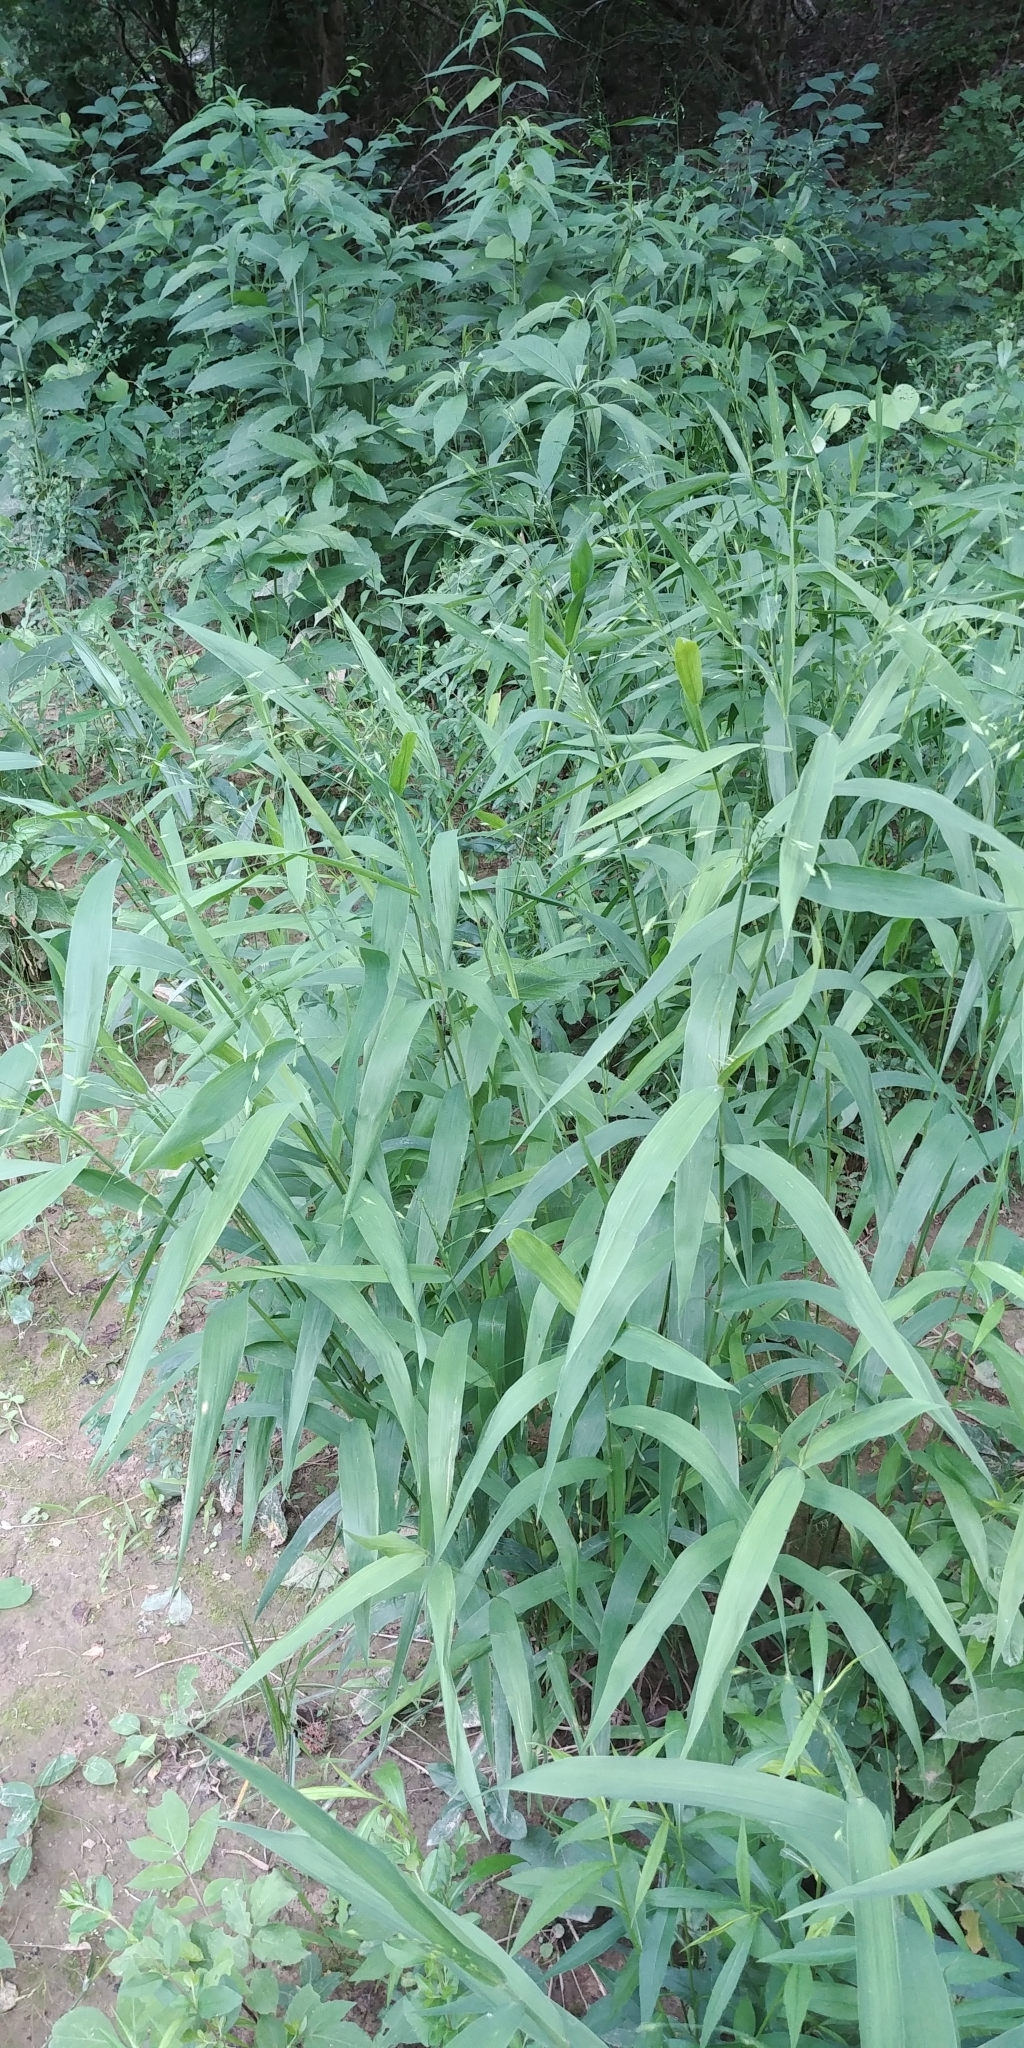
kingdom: Plantae
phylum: Tracheophyta
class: Liliopsida
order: Poales
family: Poaceae
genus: Chasmanthium
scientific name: Chasmanthium latifolium
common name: Broad-leaved chasmanthium
